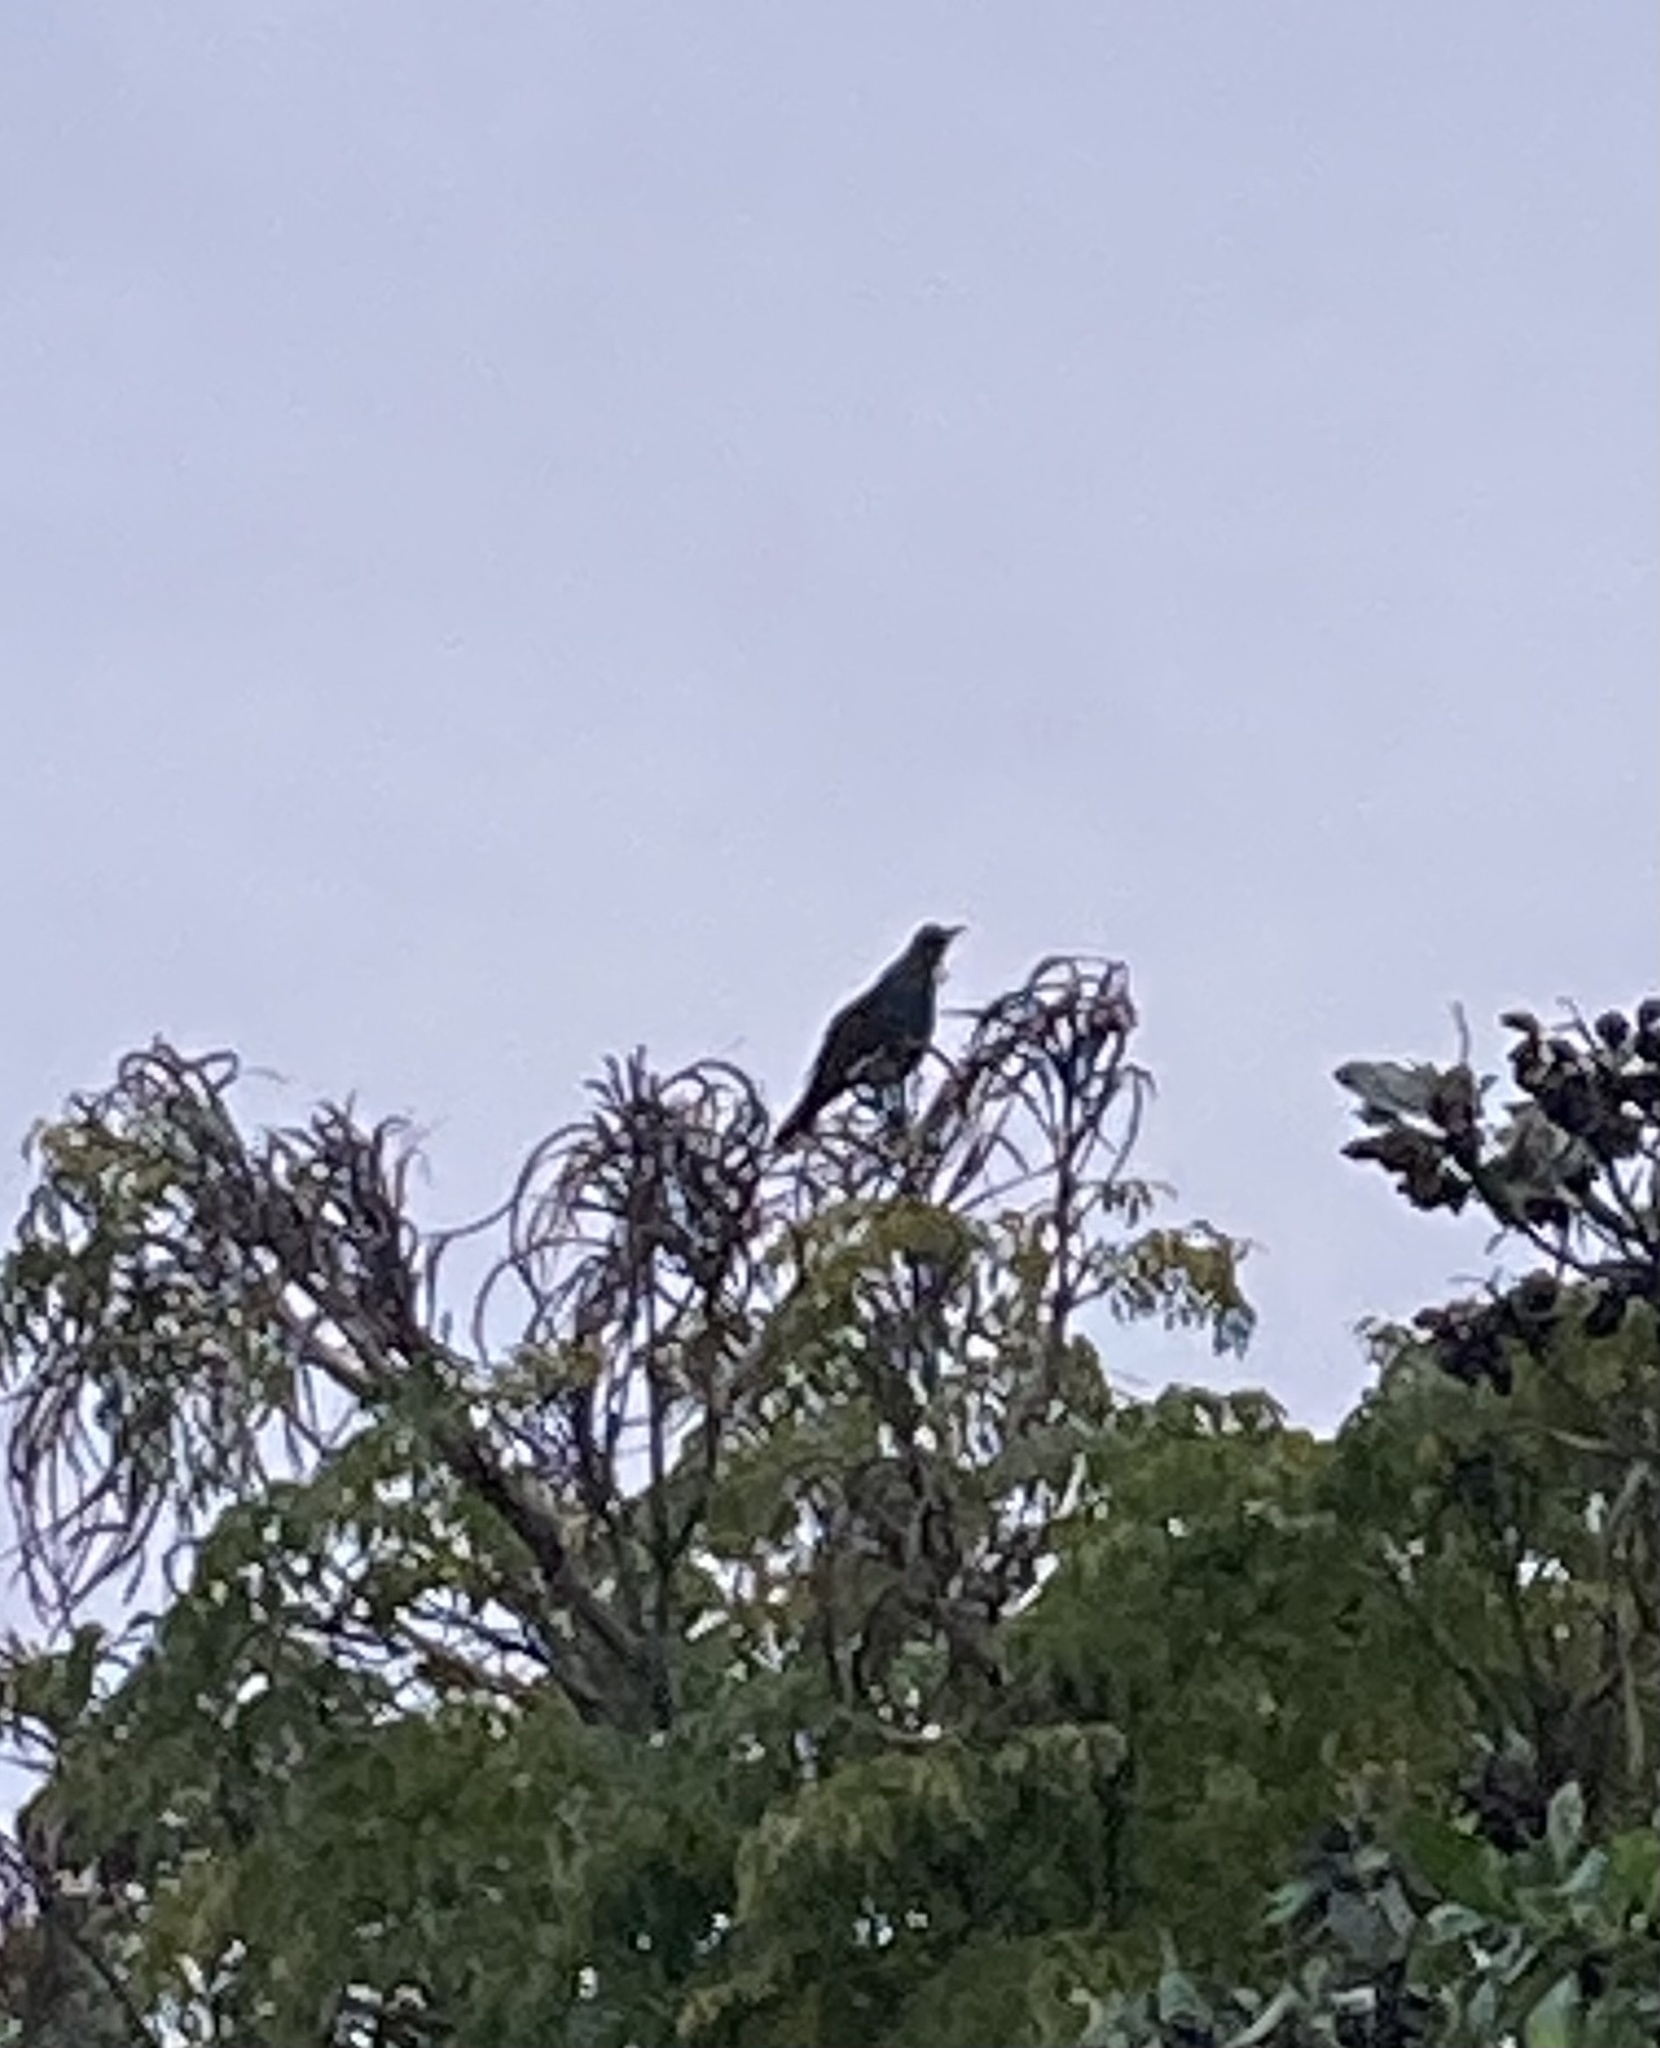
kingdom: Animalia
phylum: Chordata
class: Aves
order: Passeriformes
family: Meliphagidae
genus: Prosthemadera
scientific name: Prosthemadera novaeseelandiae
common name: Tui
